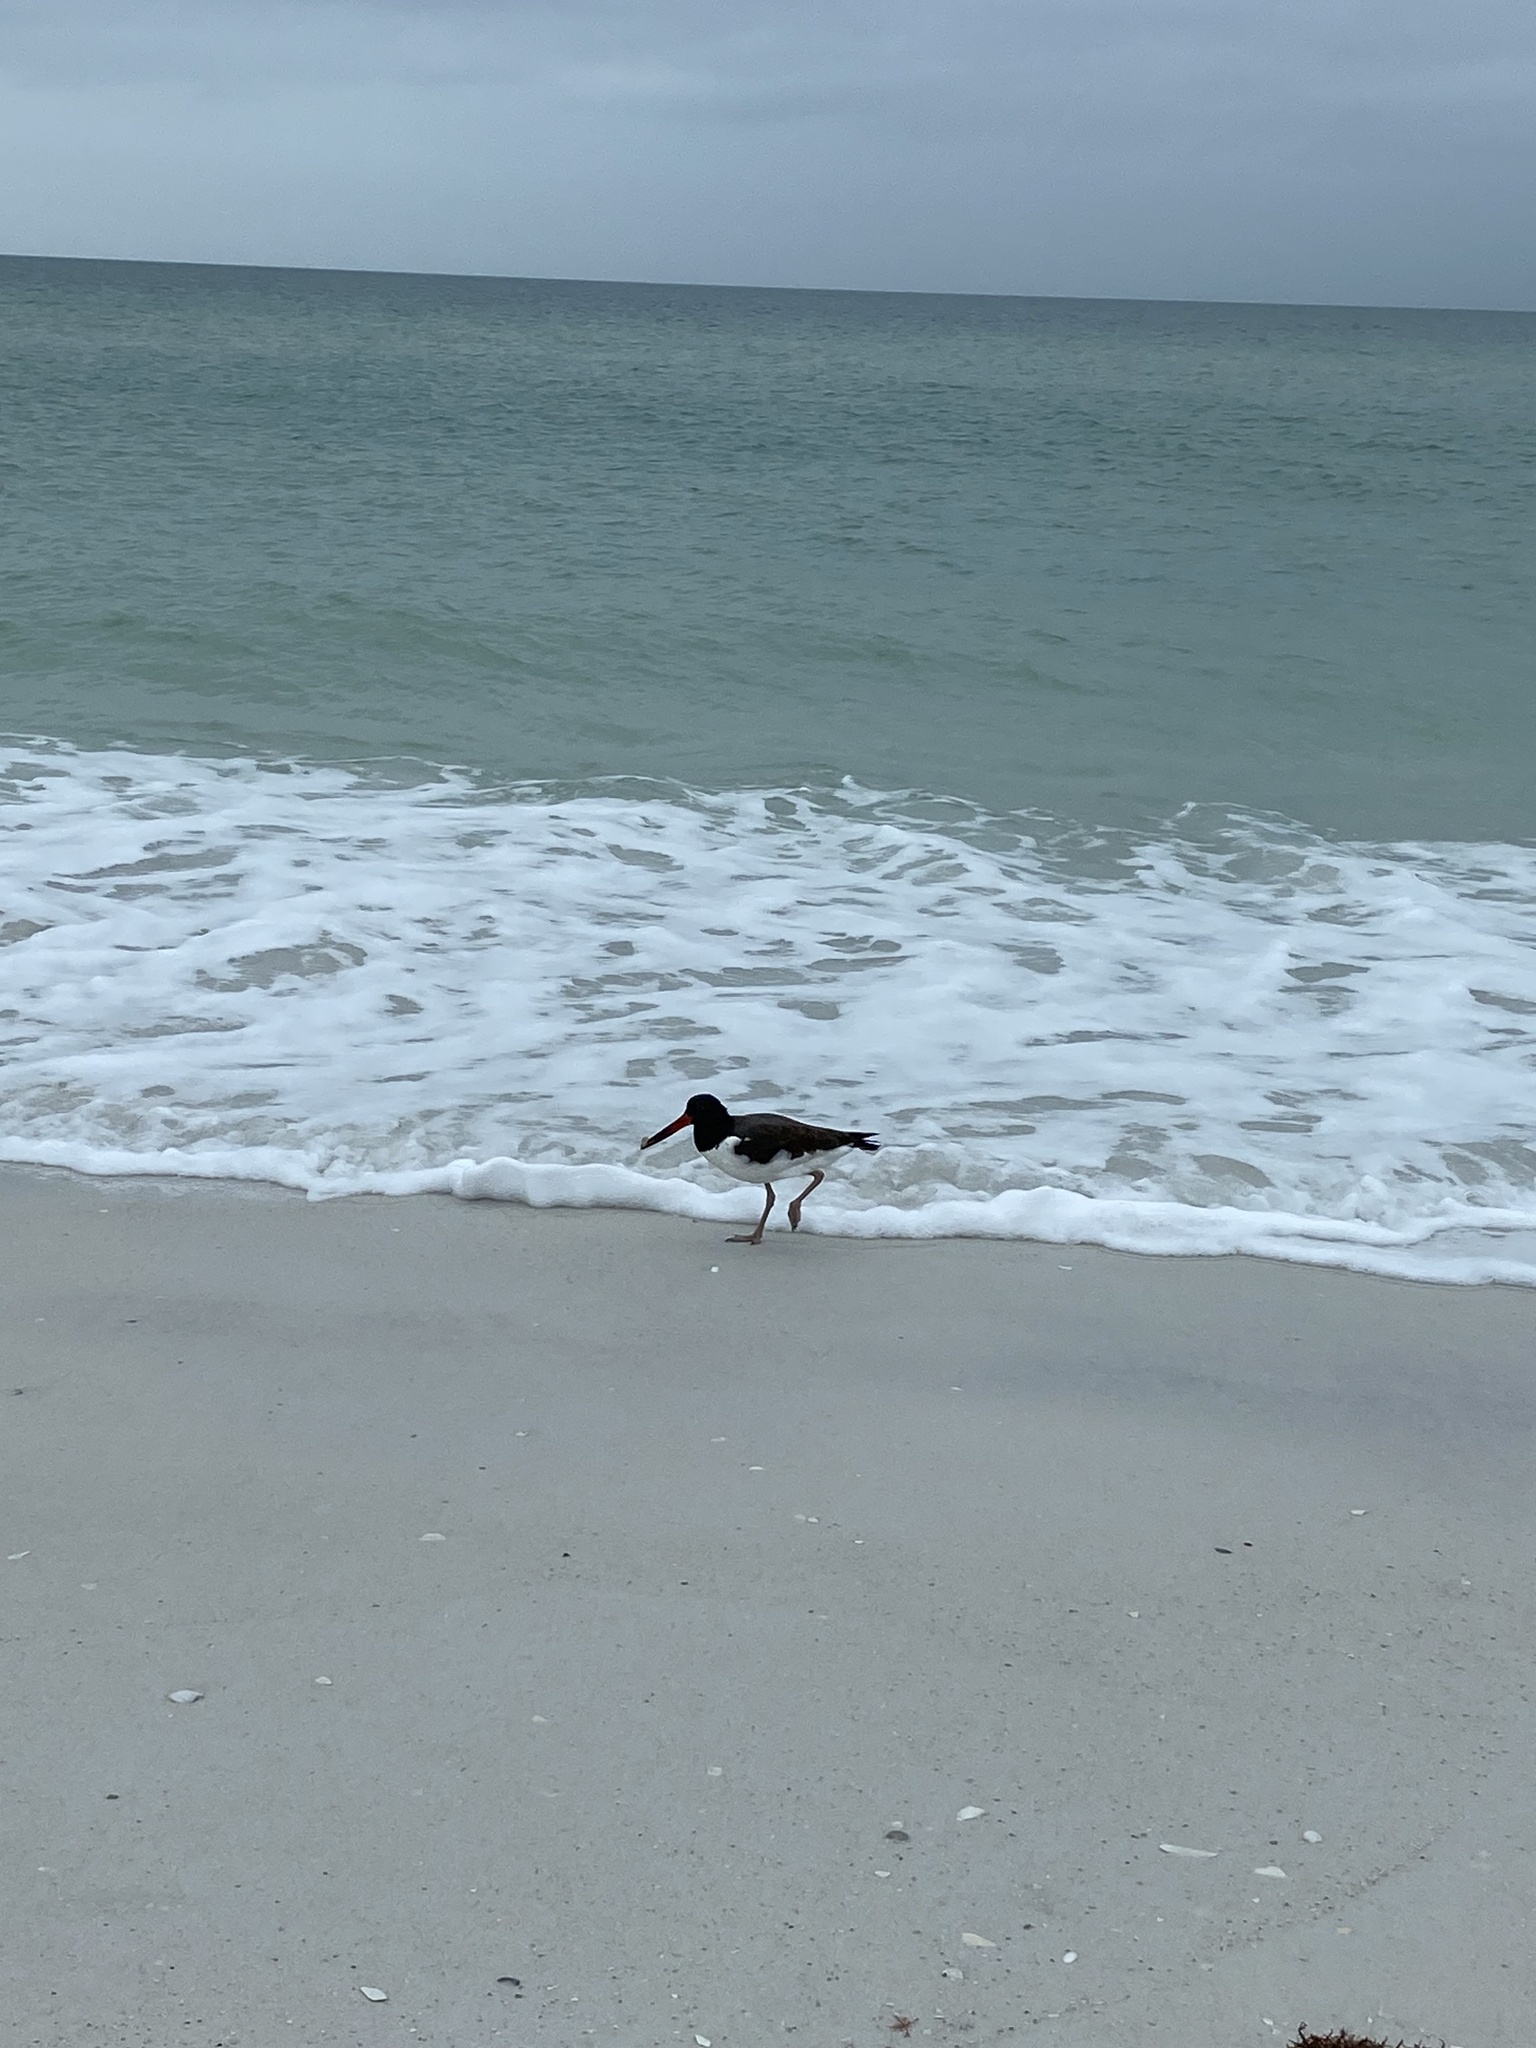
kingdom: Animalia
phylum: Chordata
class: Aves
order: Charadriiformes
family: Haematopodidae
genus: Haematopus
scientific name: Haematopus palliatus
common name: American oystercatcher
